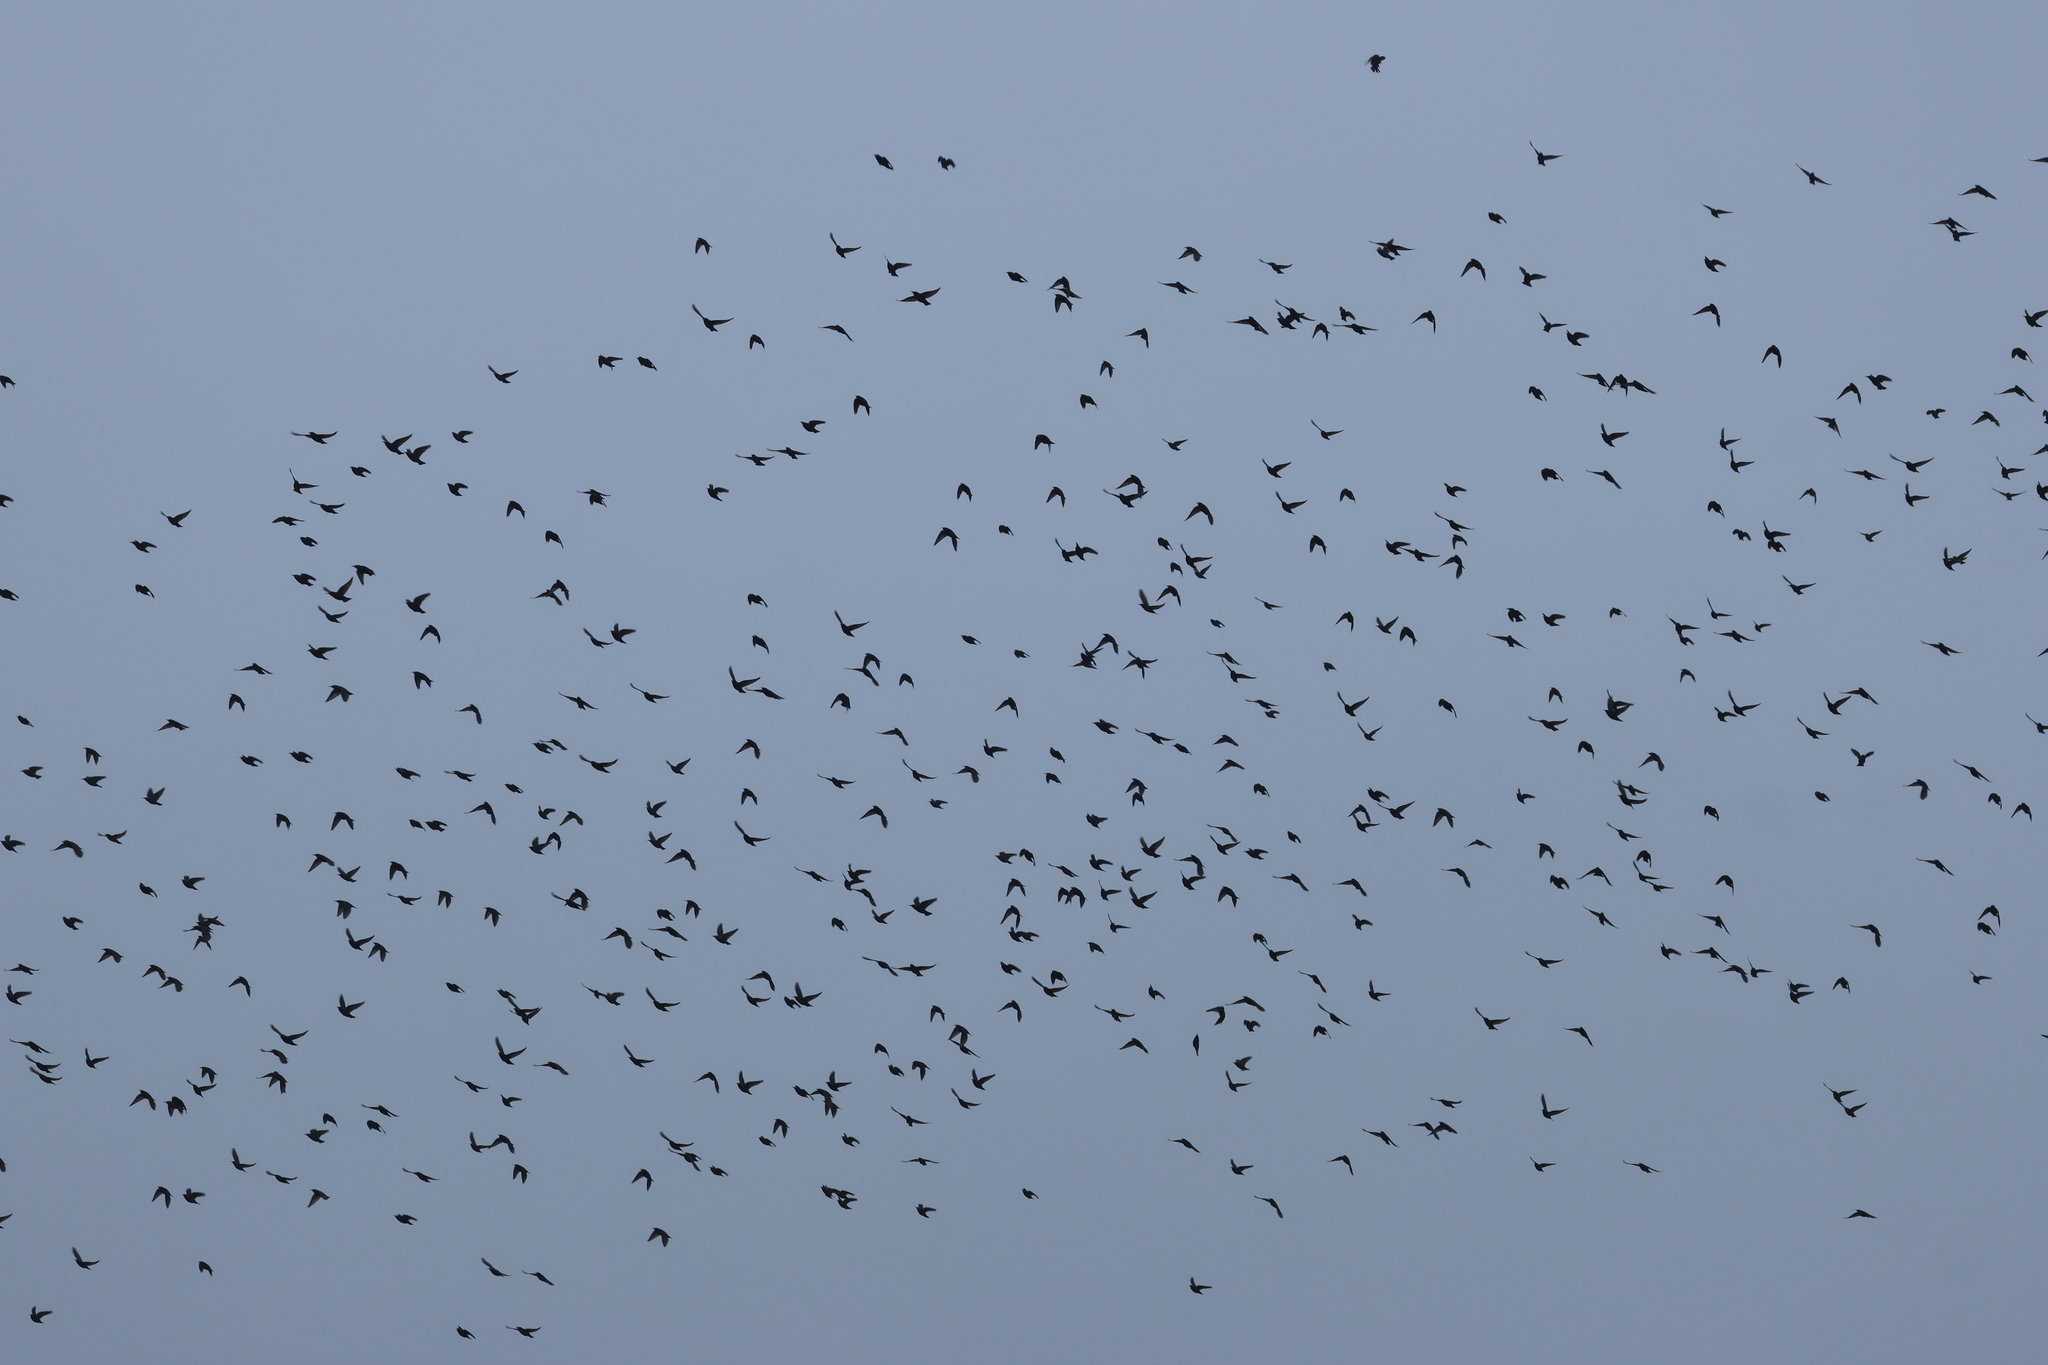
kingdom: Animalia
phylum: Chordata
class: Aves
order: Passeriformes
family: Sturnidae
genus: Sturnus
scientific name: Sturnus vulgaris
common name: Common starling
